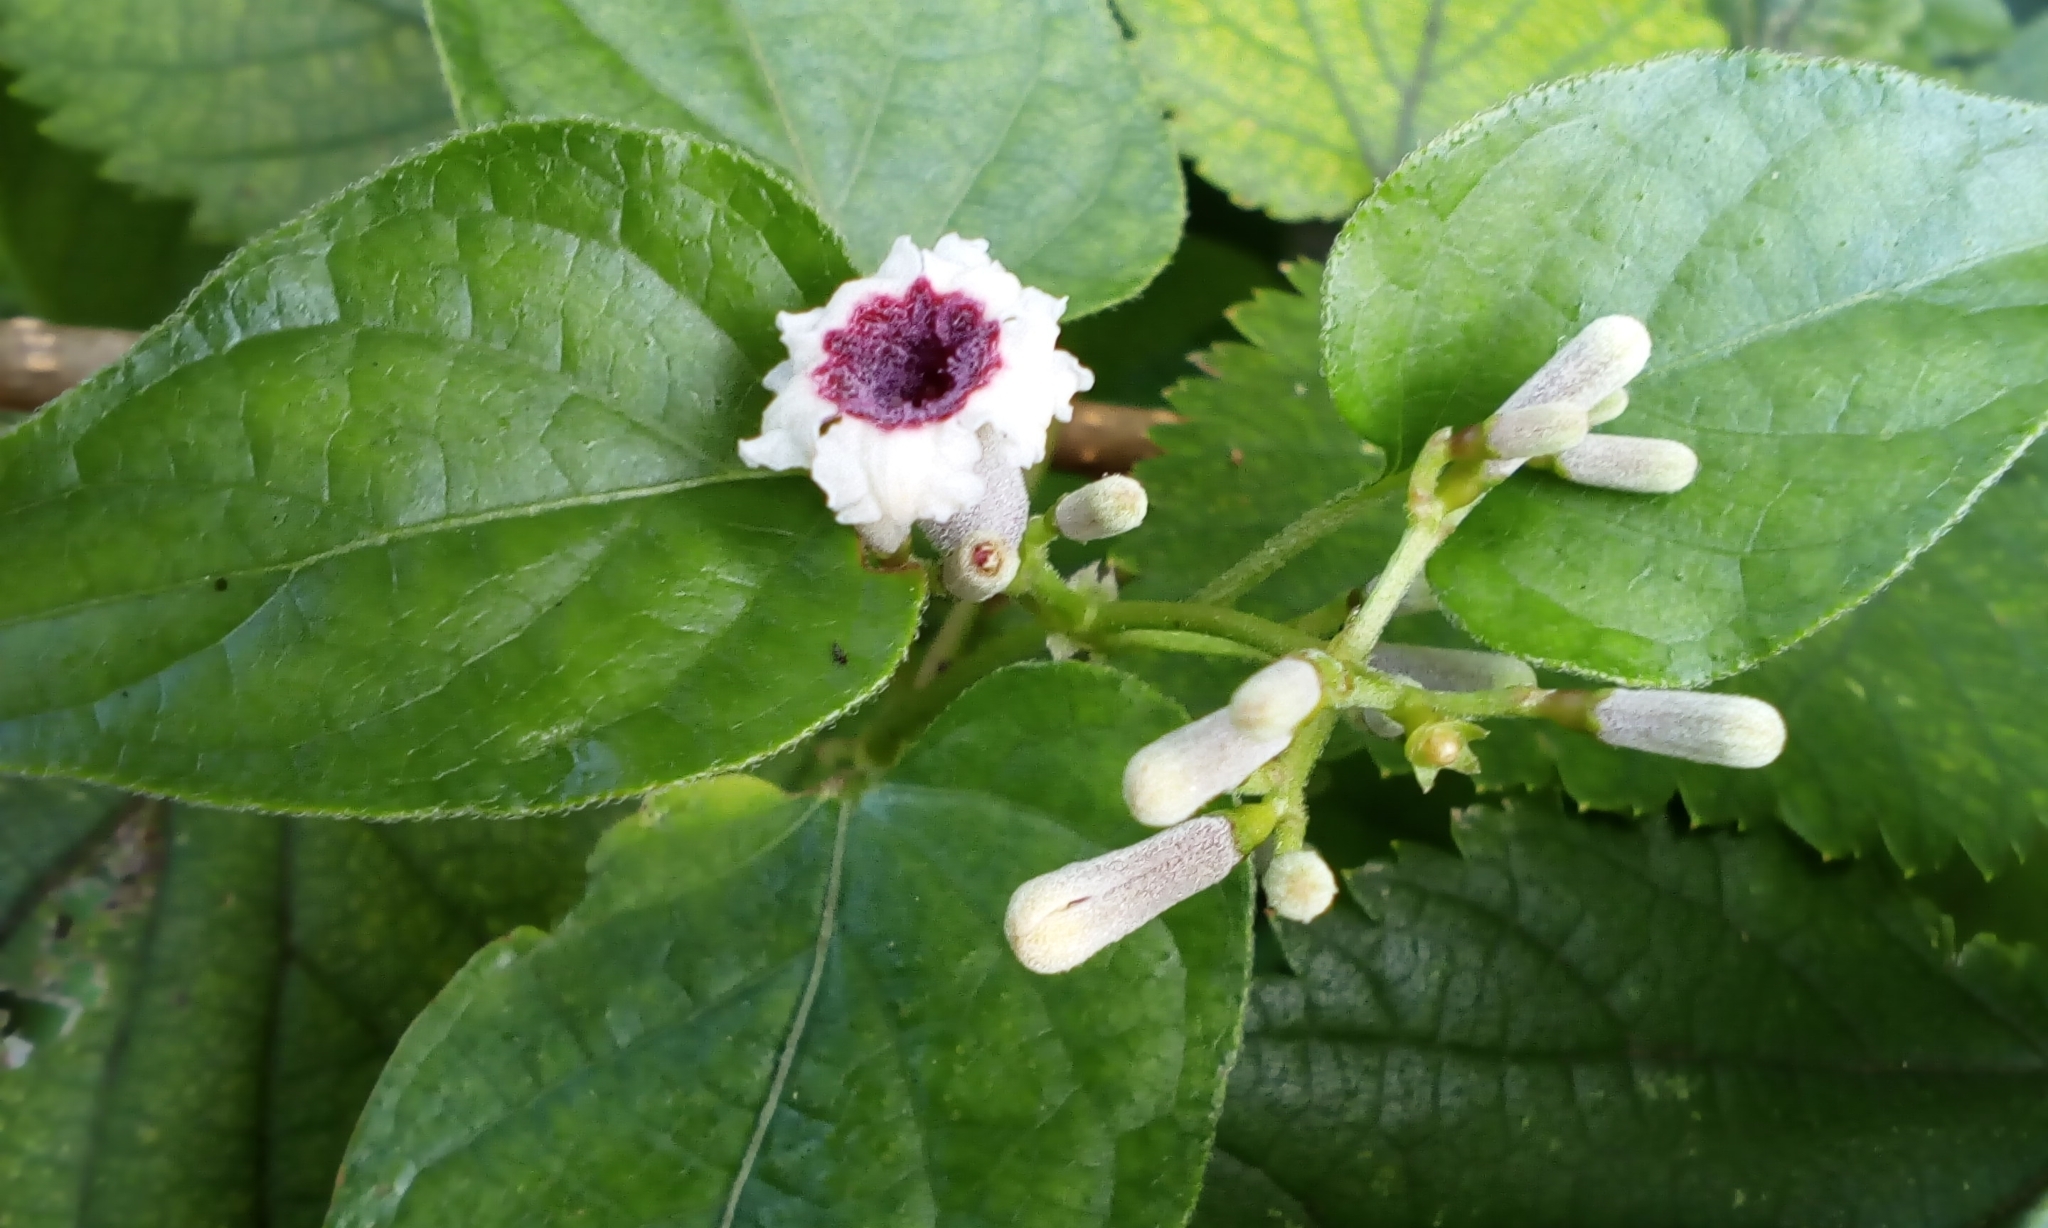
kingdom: Plantae
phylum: Tracheophyta
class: Magnoliopsida
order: Gentianales
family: Rubiaceae
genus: Paederia
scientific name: Paederia foetida
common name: Stinkvine
